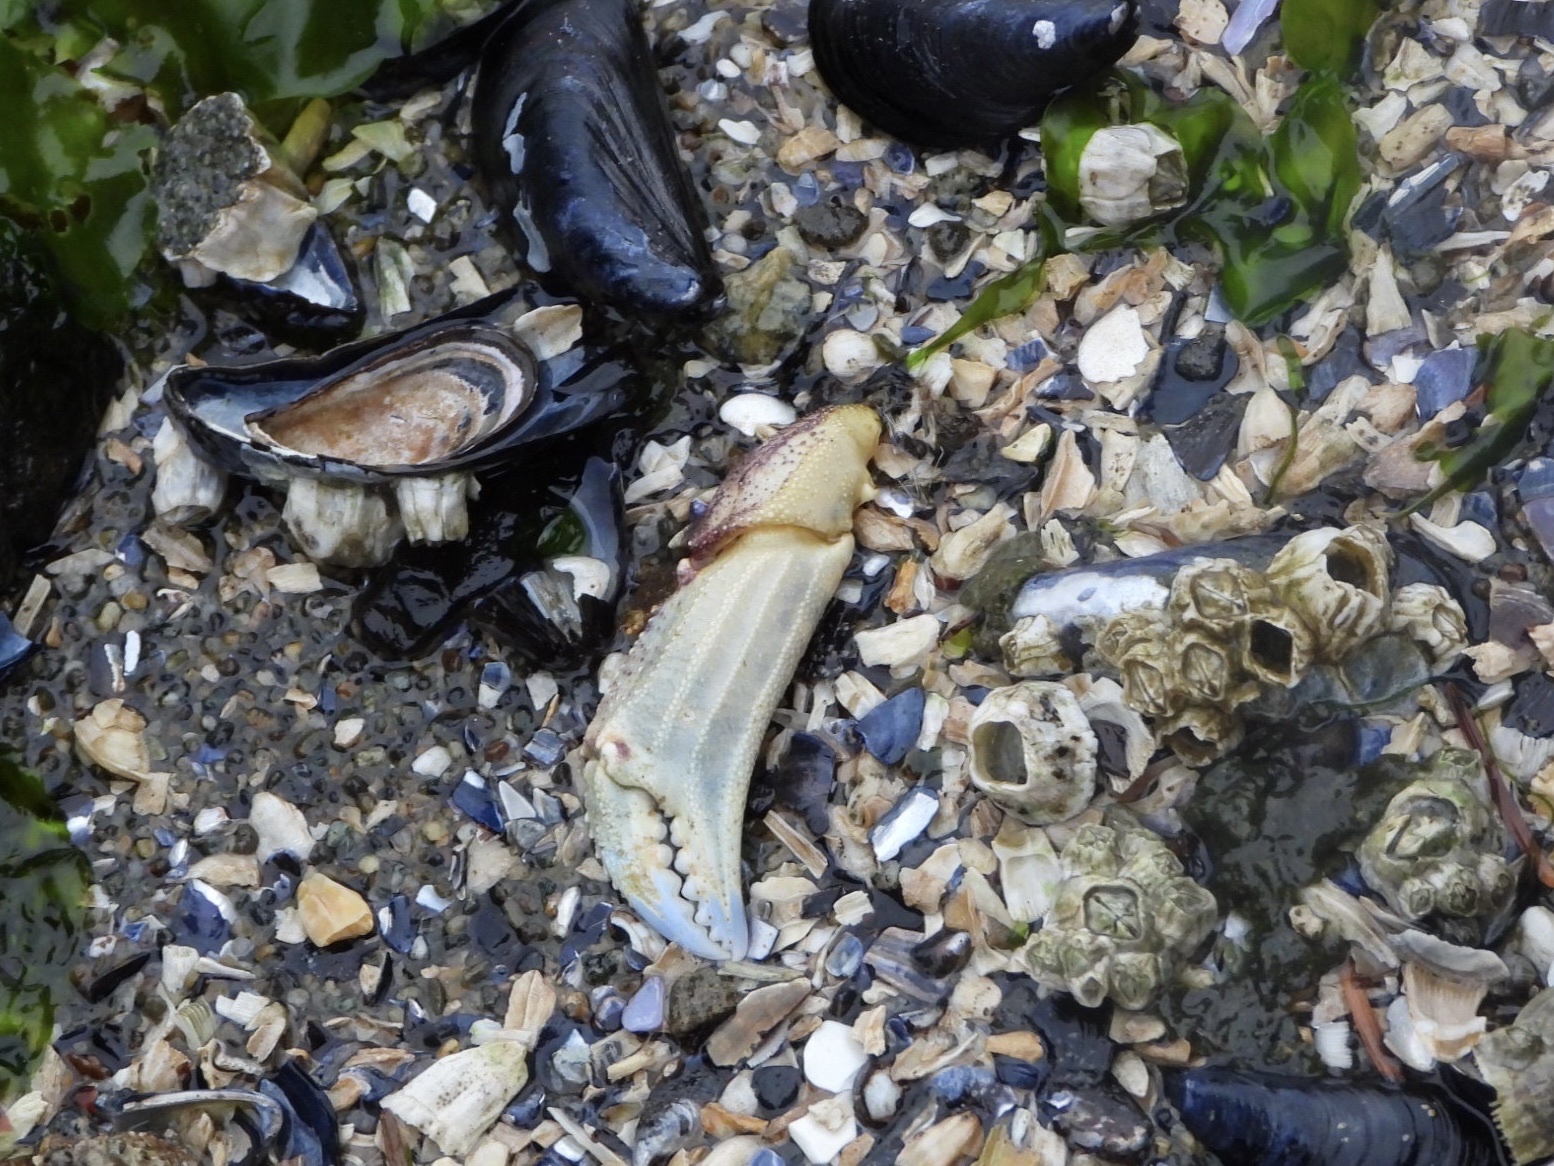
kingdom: Animalia
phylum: Arthropoda
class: Malacostraca
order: Decapoda
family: Cancridae
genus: Metacarcinus
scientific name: Metacarcinus magister
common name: Californian crab
